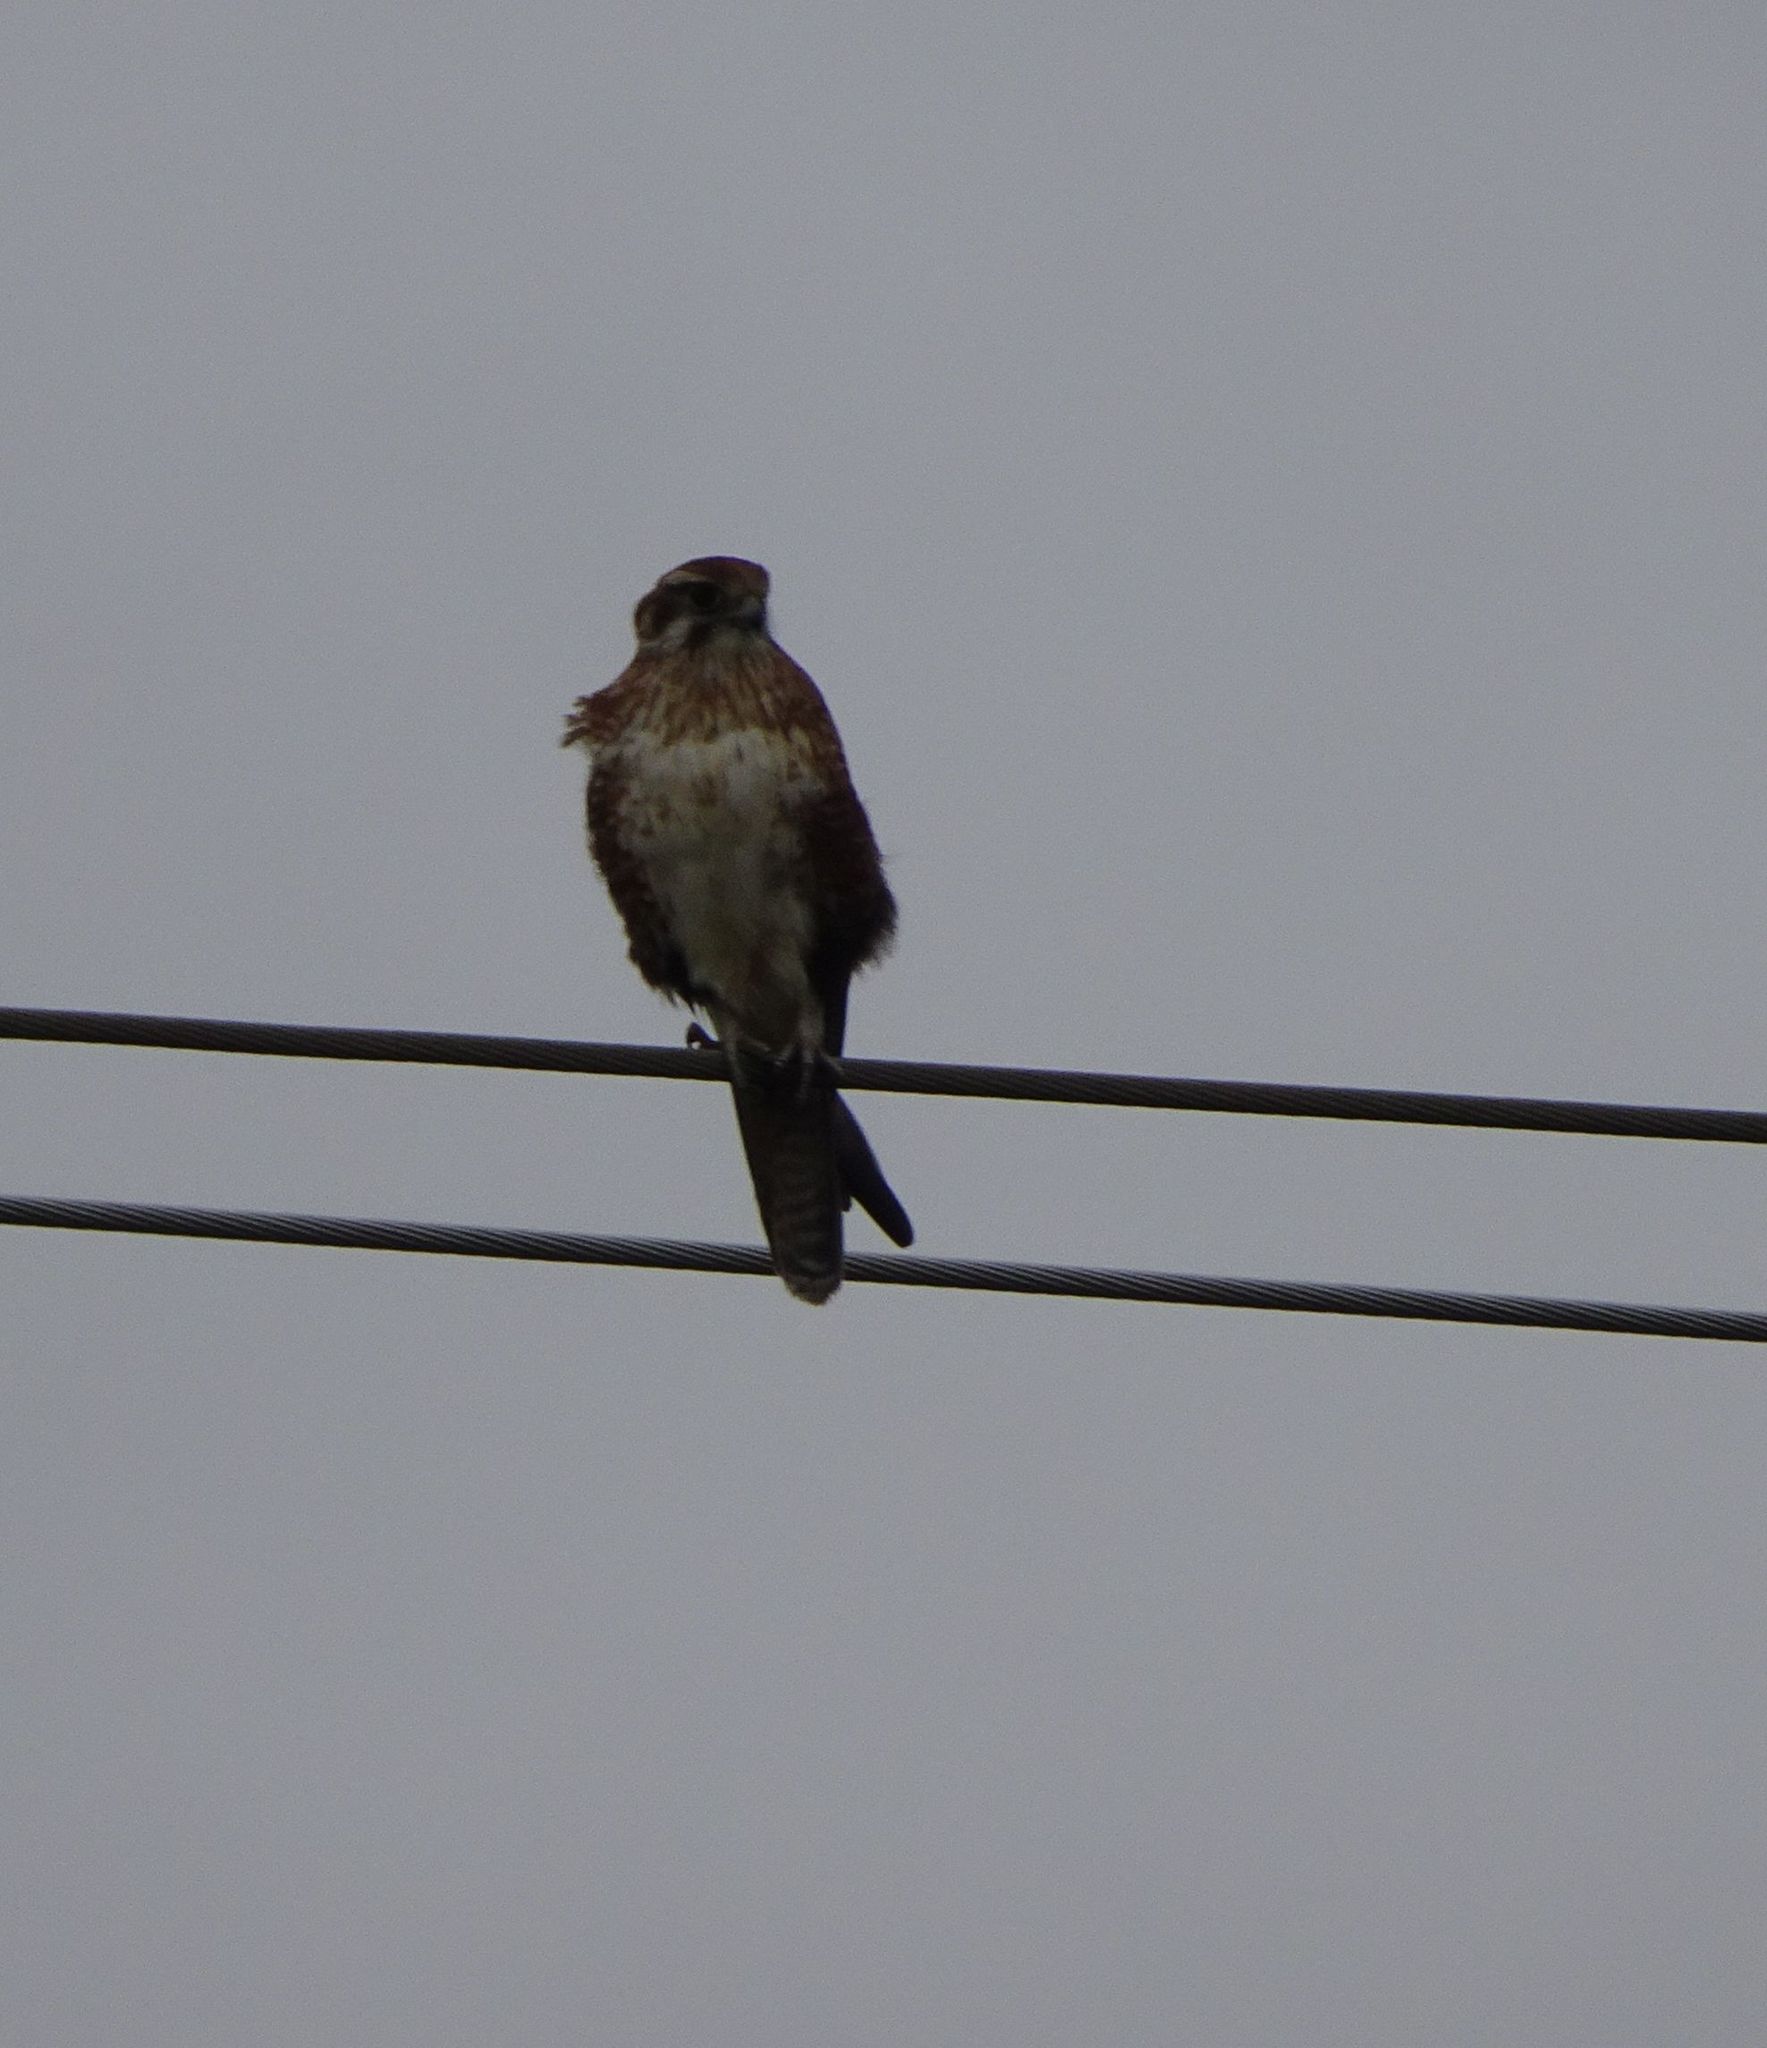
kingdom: Animalia
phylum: Chordata
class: Aves
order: Falconiformes
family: Falconidae
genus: Falco
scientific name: Falco berigora
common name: Brown falcon
